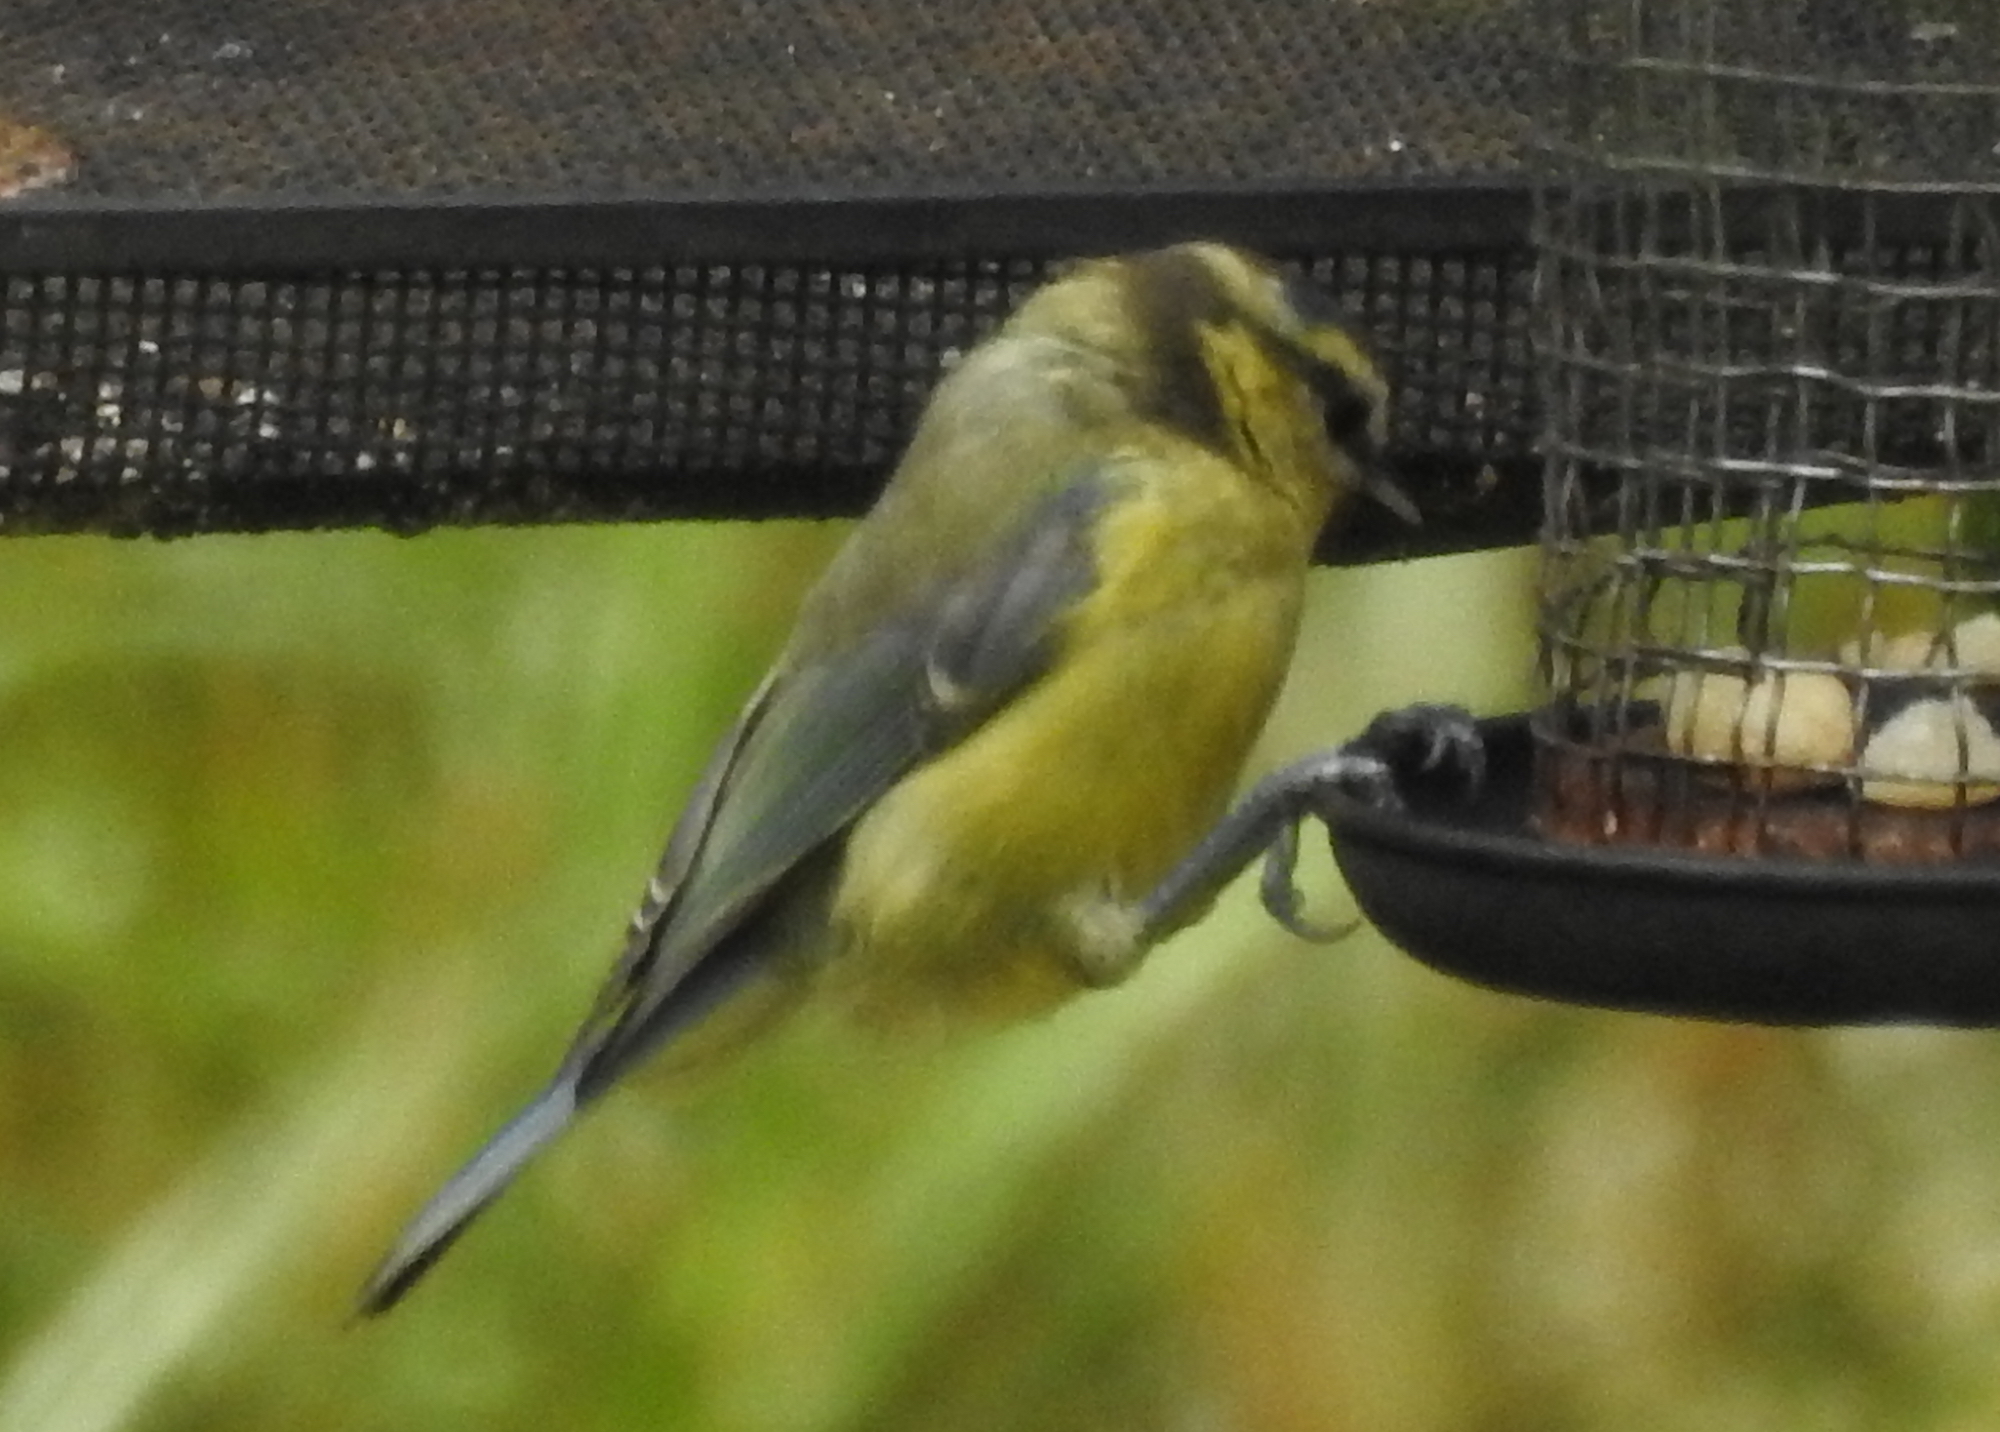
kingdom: Animalia
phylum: Chordata
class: Aves
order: Passeriformes
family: Paridae
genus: Cyanistes
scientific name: Cyanistes caeruleus
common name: Eurasian blue tit
